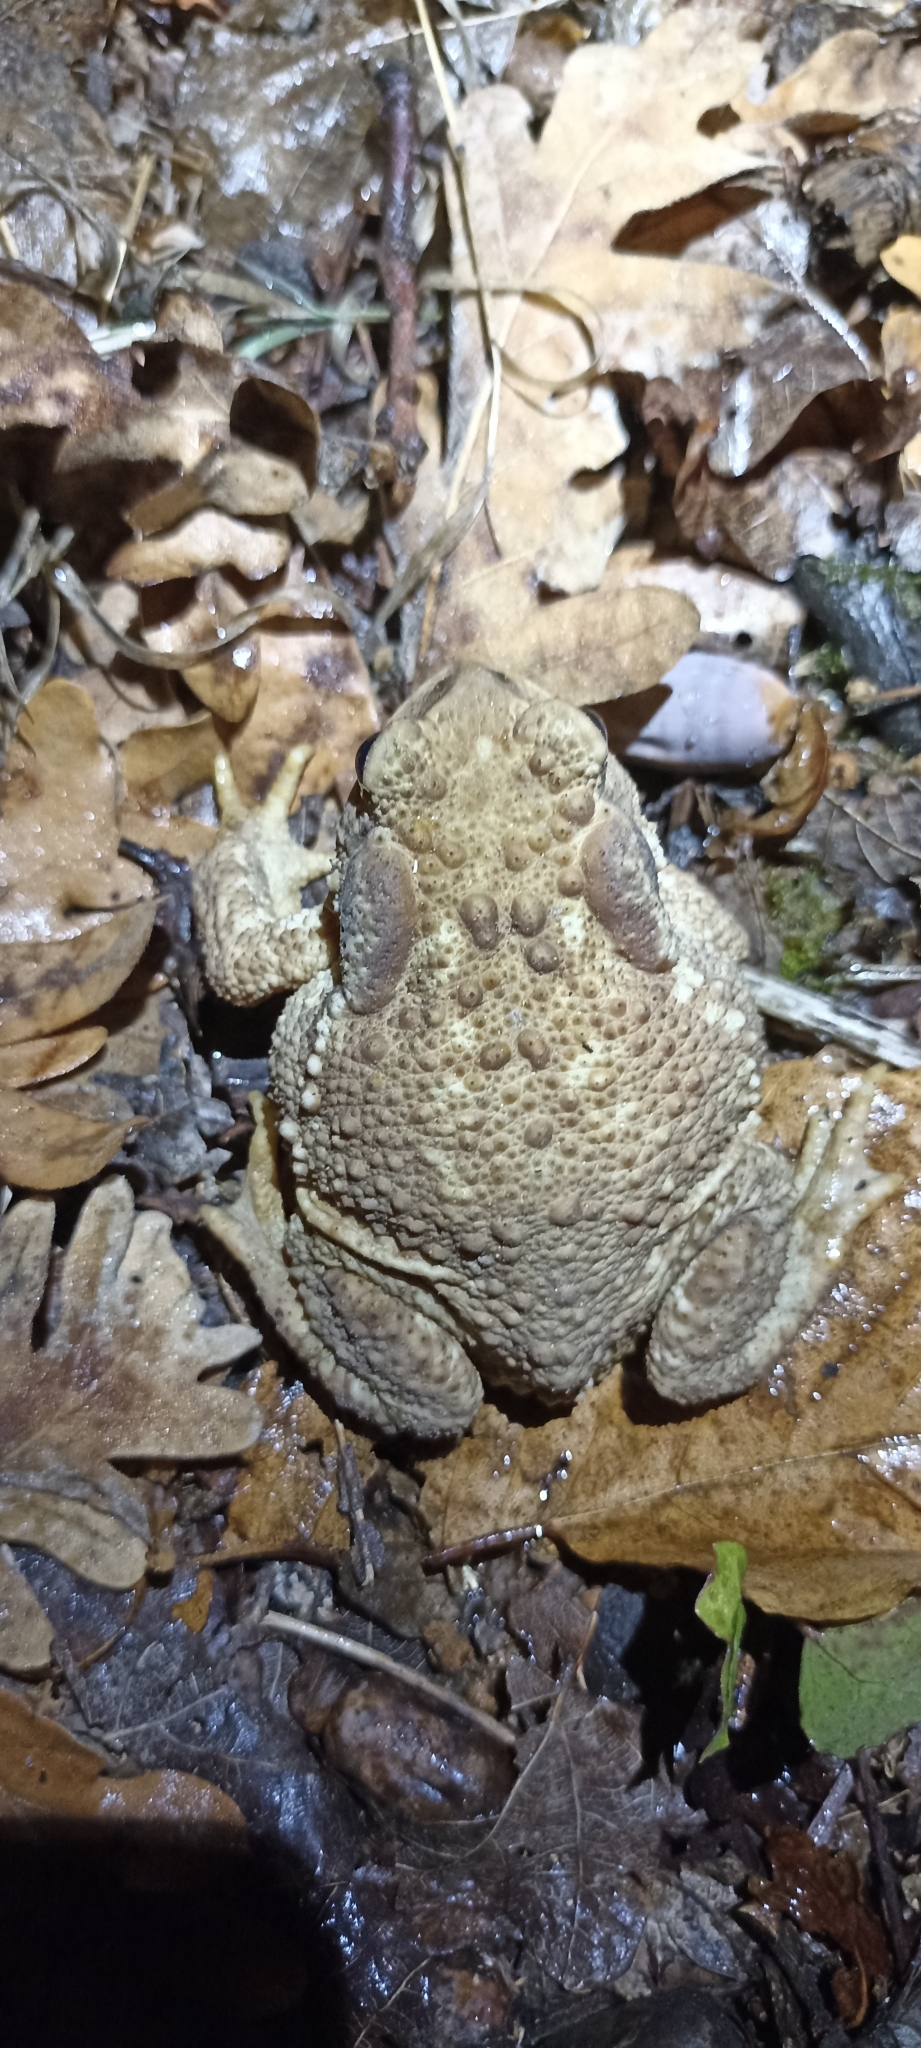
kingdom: Animalia
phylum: Chordata
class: Amphibia
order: Anura
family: Bufonidae
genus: Bufo
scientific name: Bufo spinosus
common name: Western common toad
